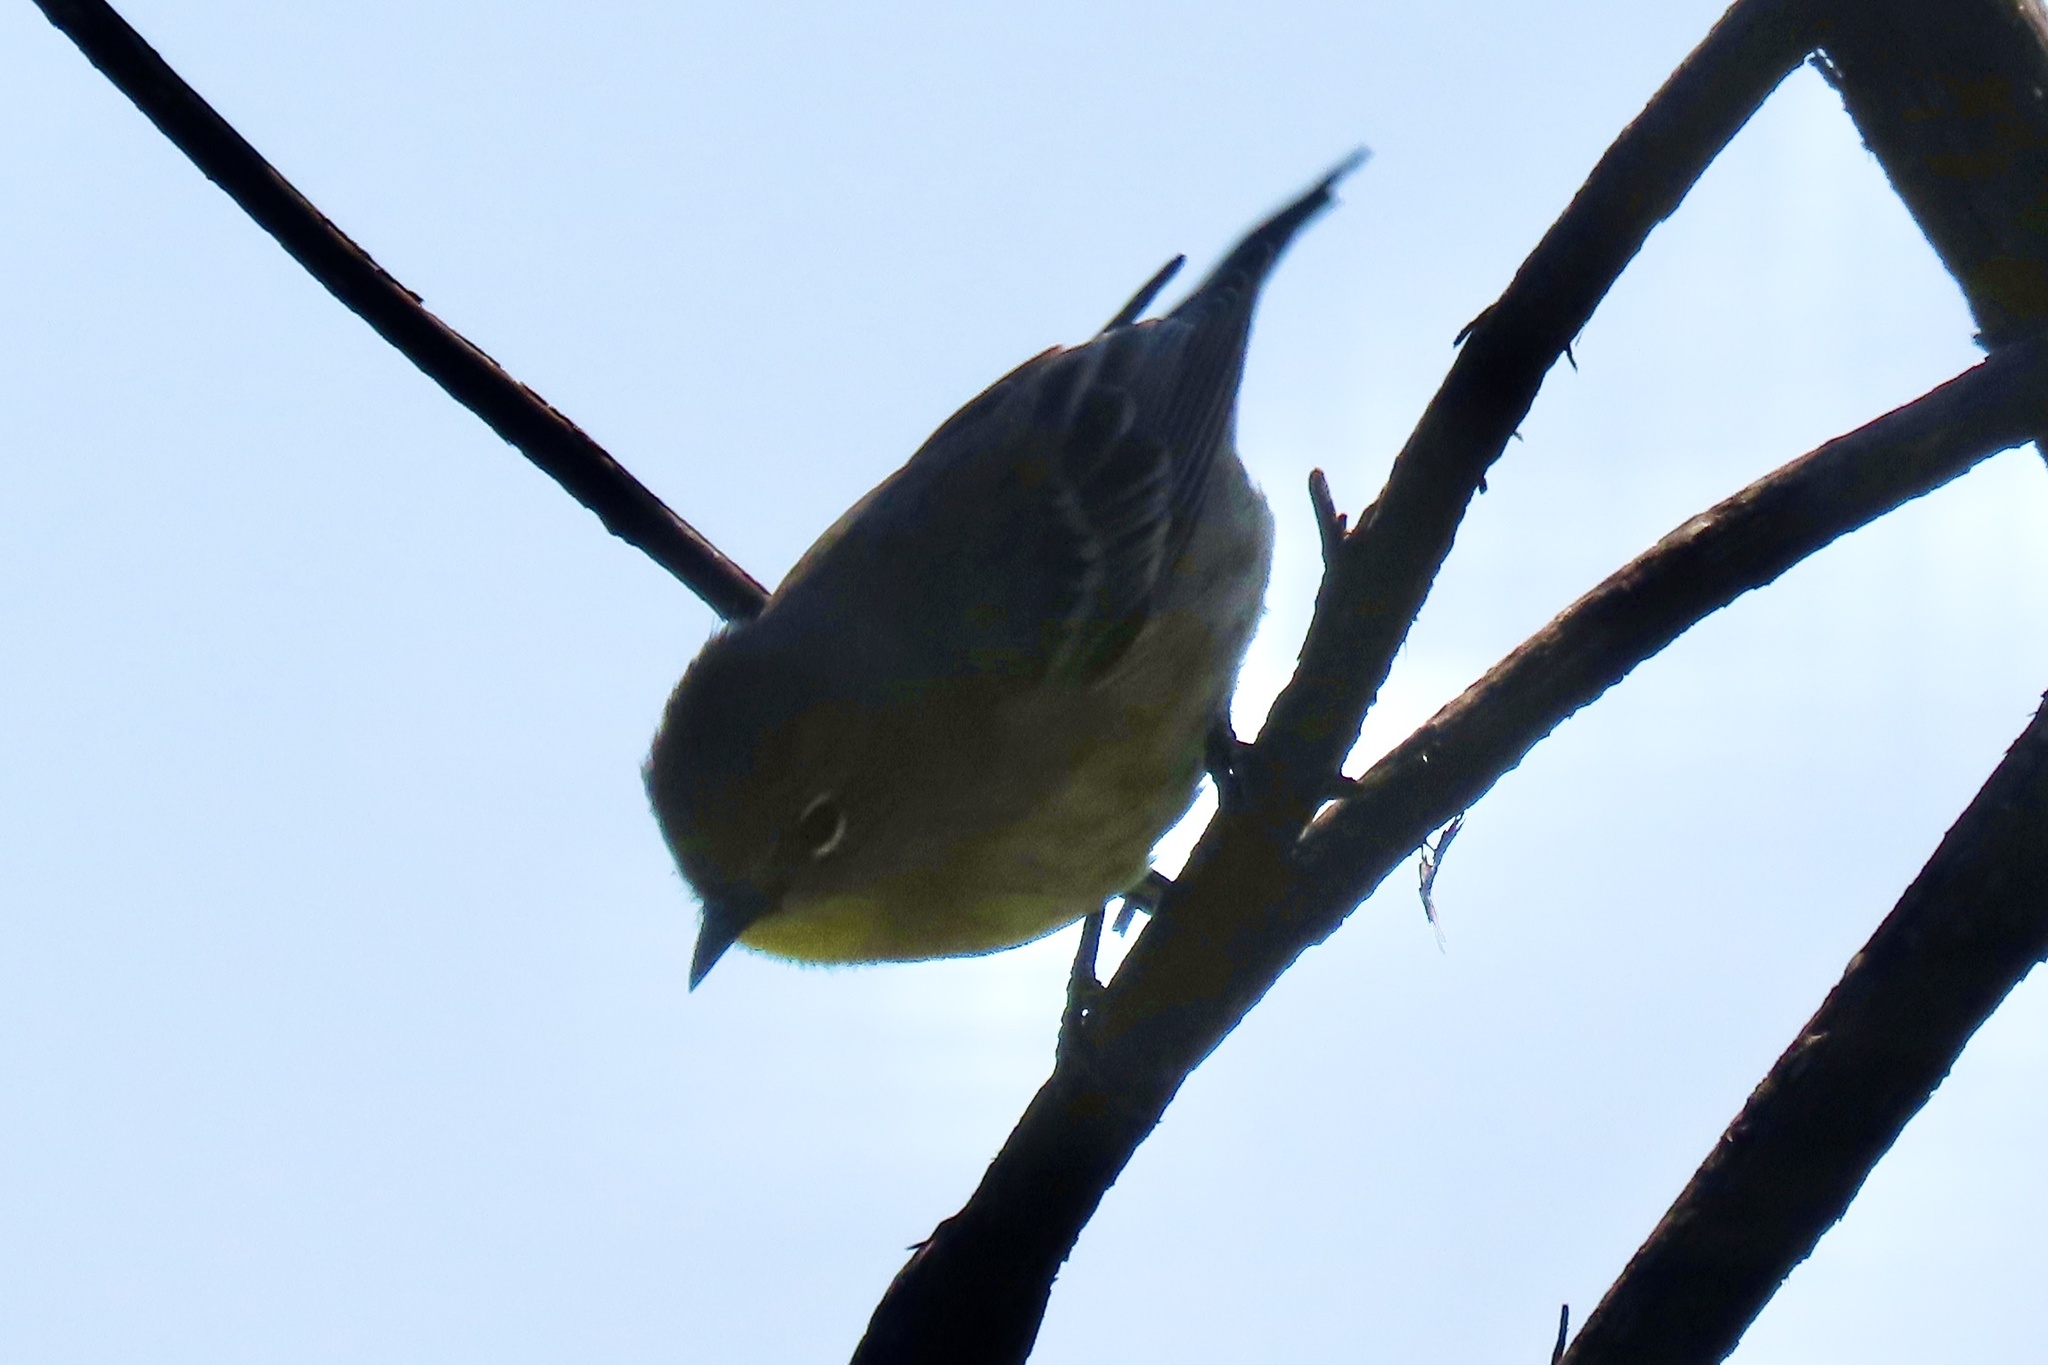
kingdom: Animalia
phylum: Chordata
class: Aves
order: Passeriformes
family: Parulidae
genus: Setophaga
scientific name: Setophaga coronata
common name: Myrtle warbler
